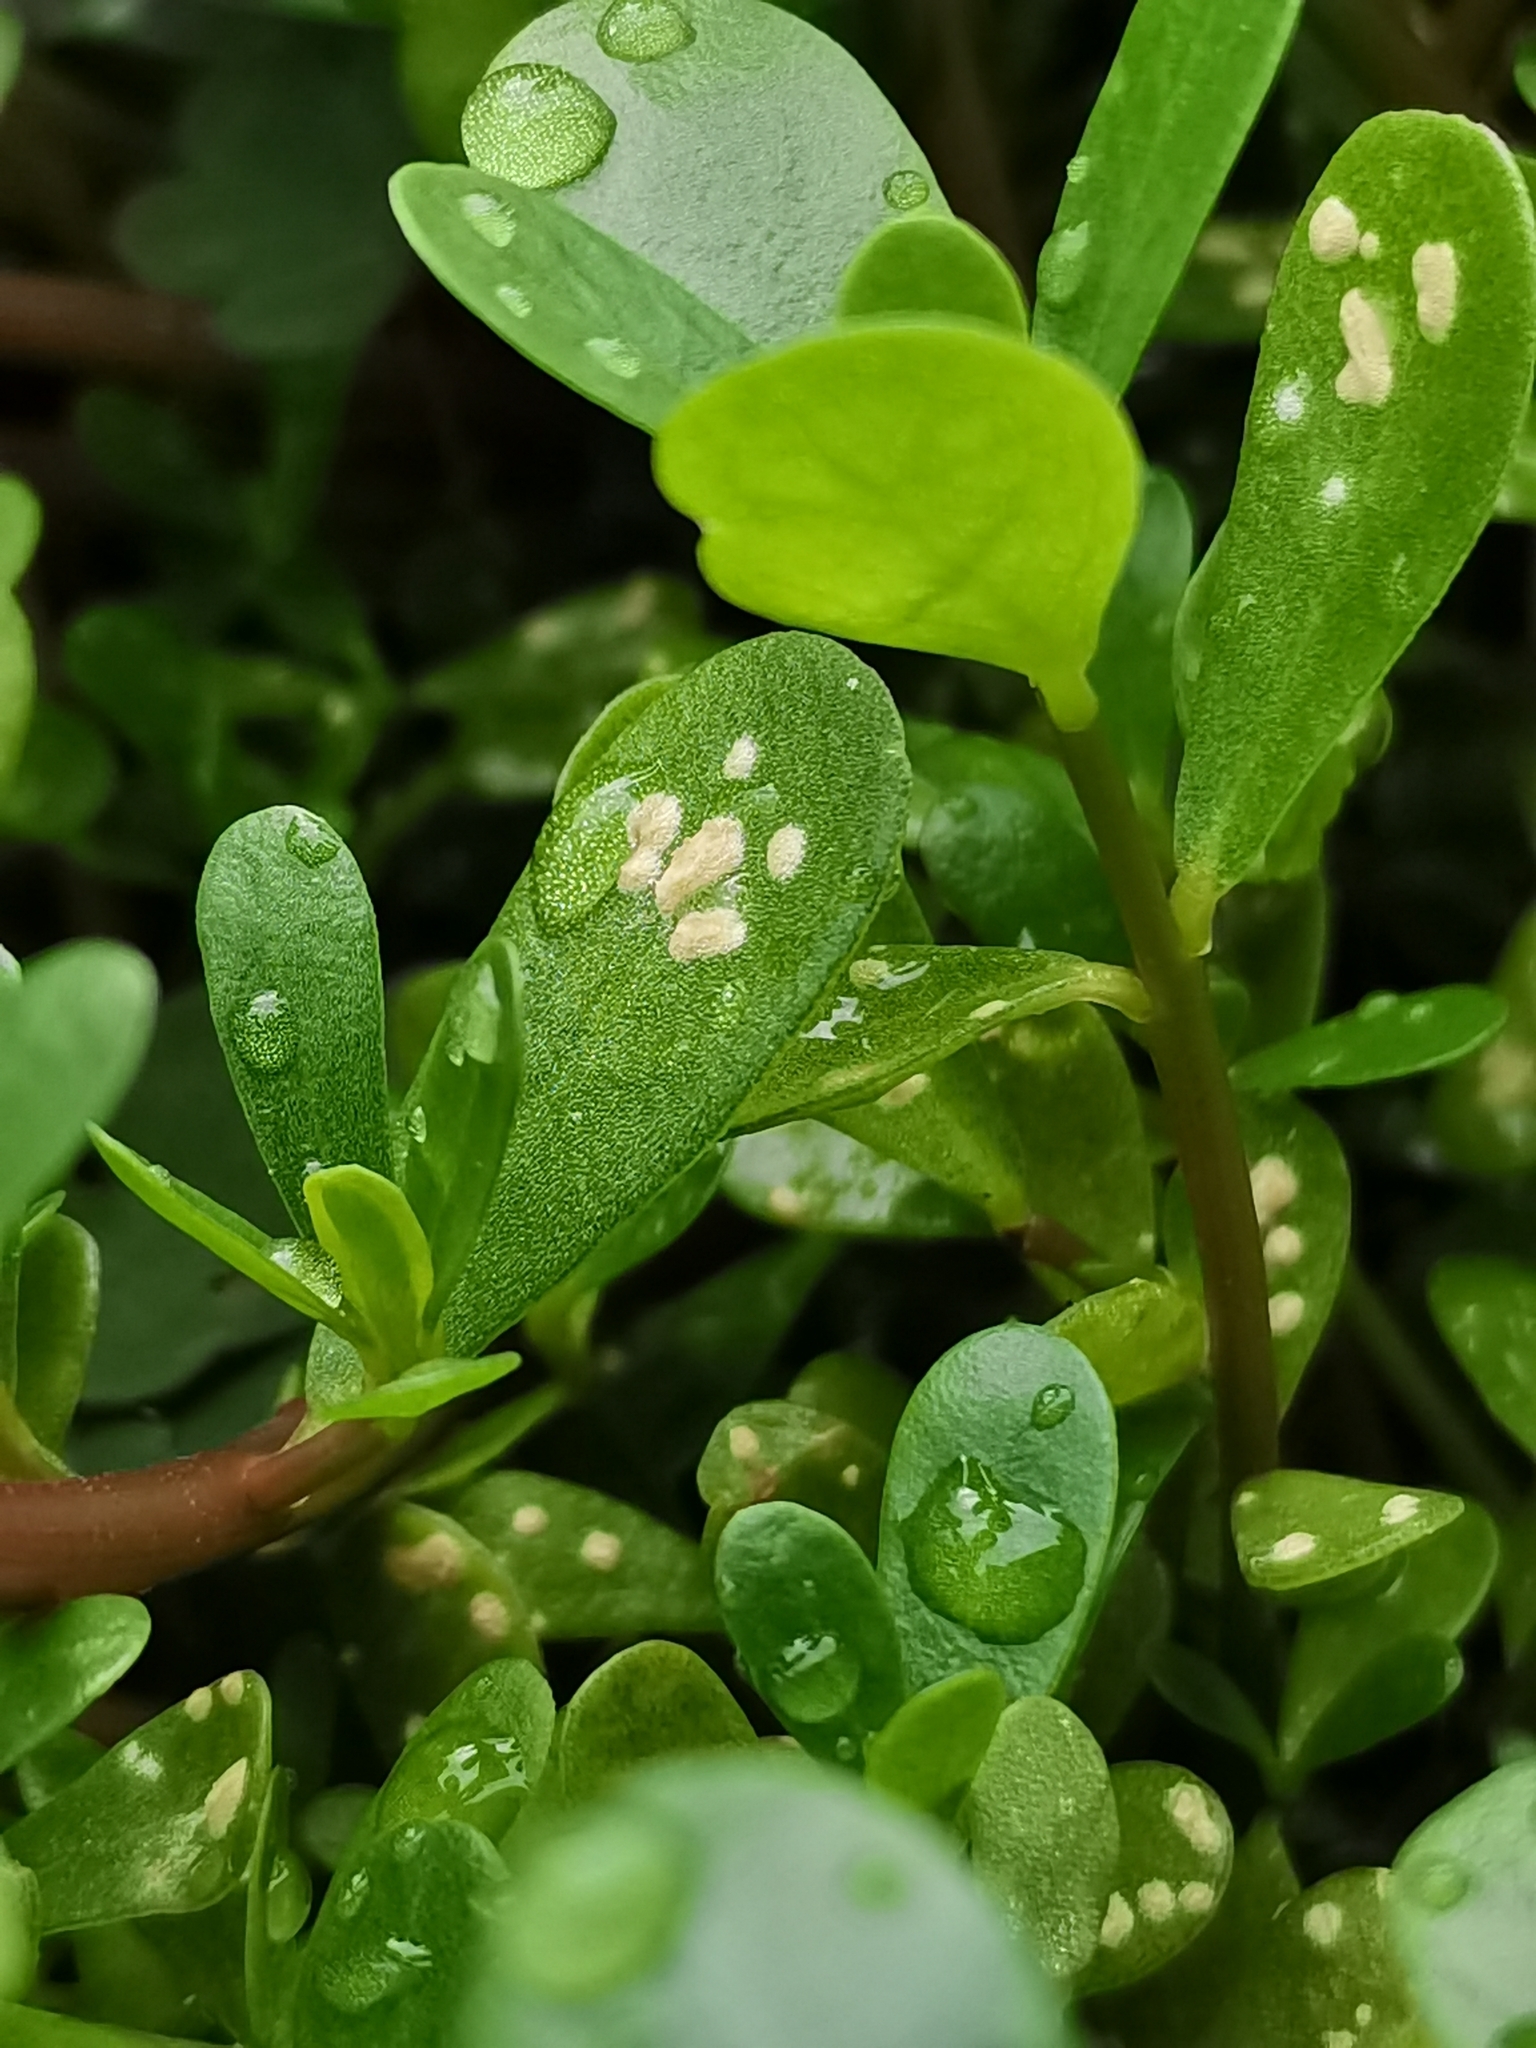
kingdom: Chromista
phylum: Oomycota
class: Peronosporea
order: Albuginales
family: Albuginaceae
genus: Wilsoniana
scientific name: Wilsoniana portulacae
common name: Purslane white rust
